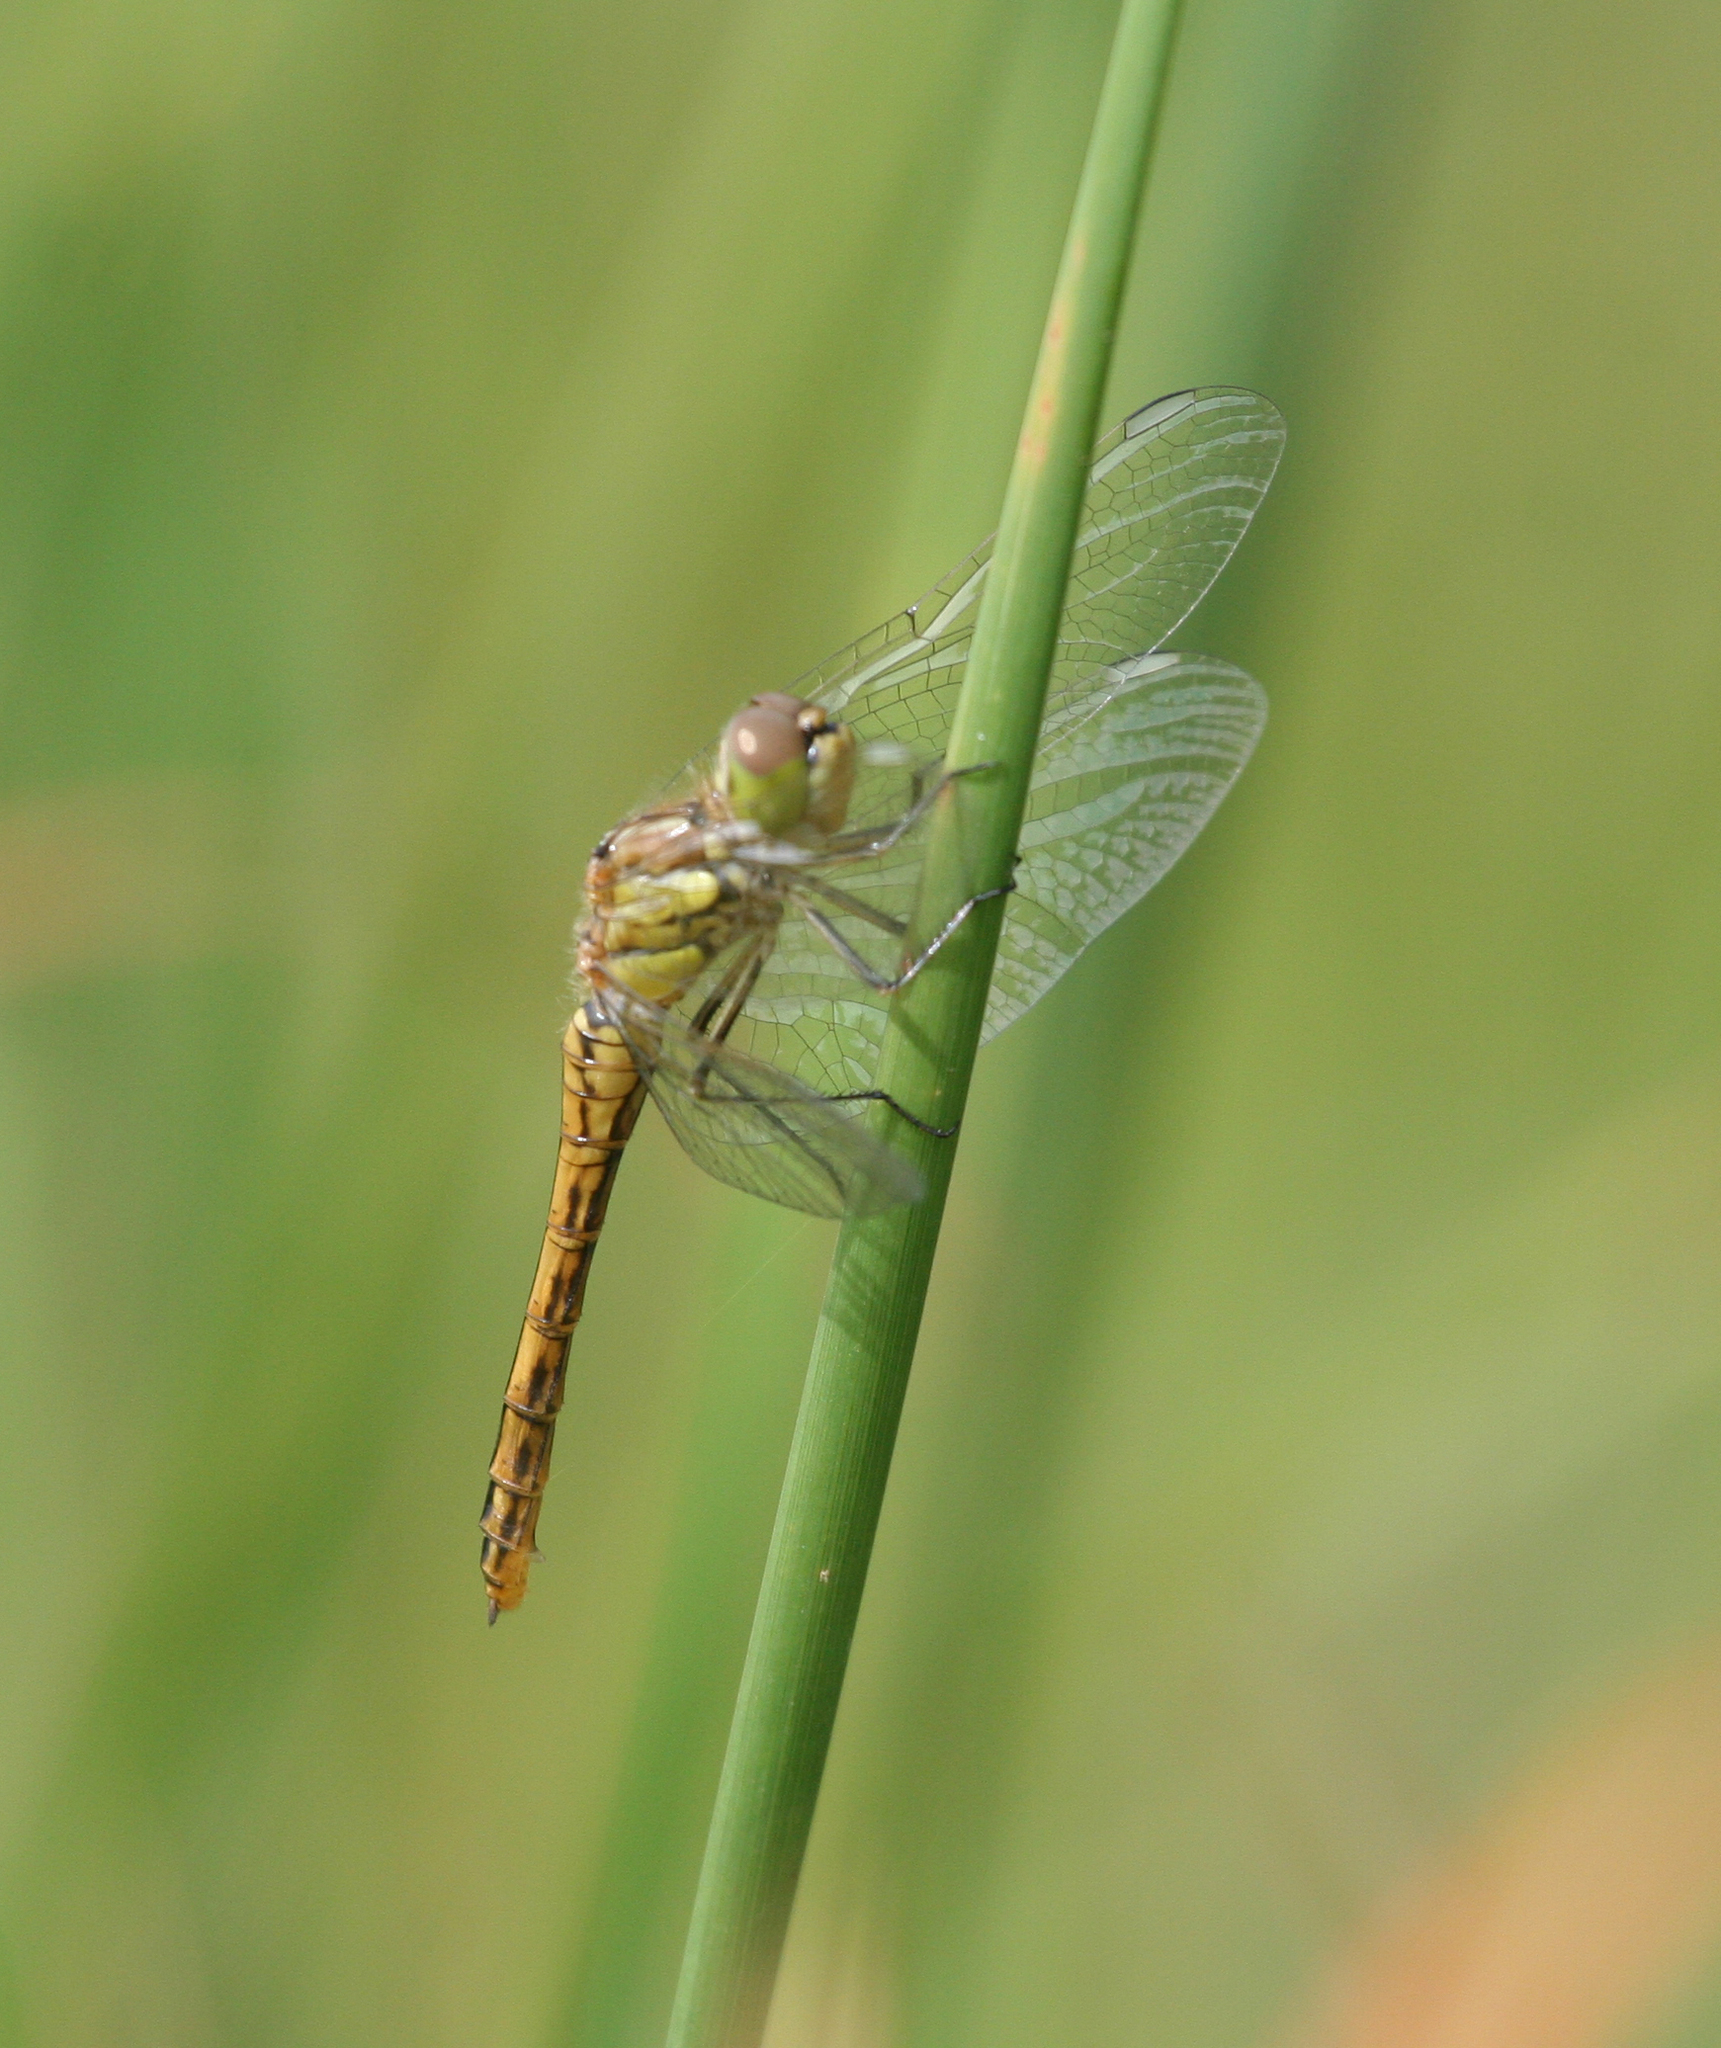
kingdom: Animalia
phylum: Arthropoda
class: Insecta
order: Odonata
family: Libellulidae
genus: Sympetrum
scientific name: Sympetrum vulgatum
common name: Vagrant darter
